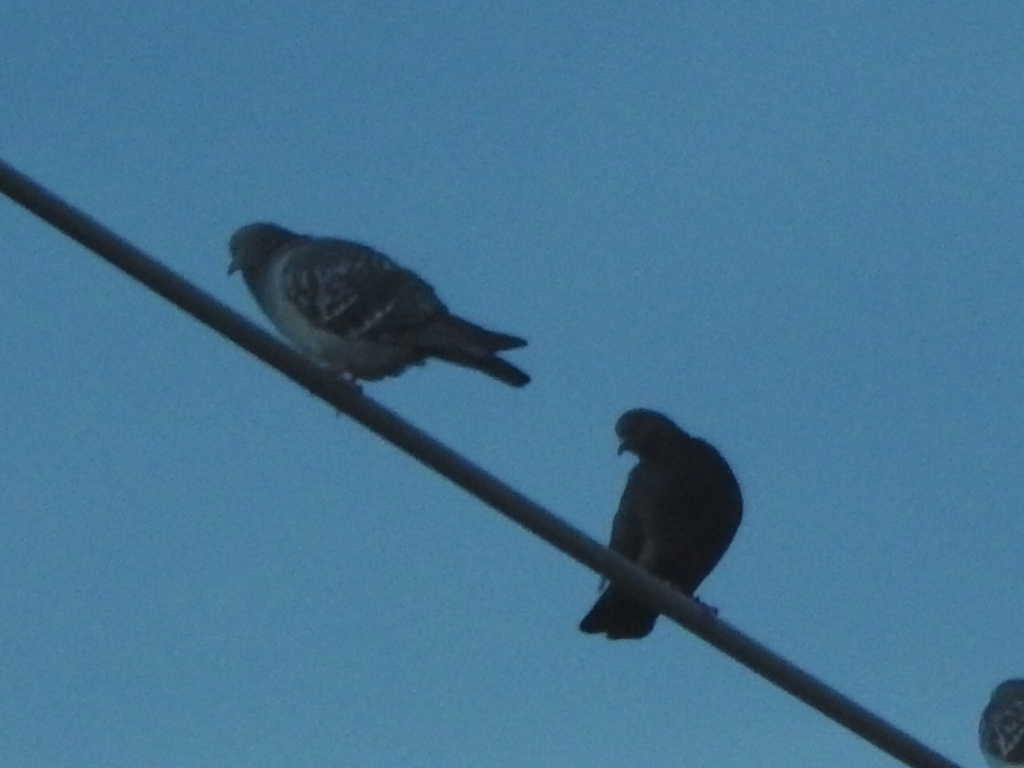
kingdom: Animalia
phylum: Chordata
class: Aves
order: Columbiformes
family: Columbidae
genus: Columba
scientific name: Columba livia
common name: Rock pigeon
